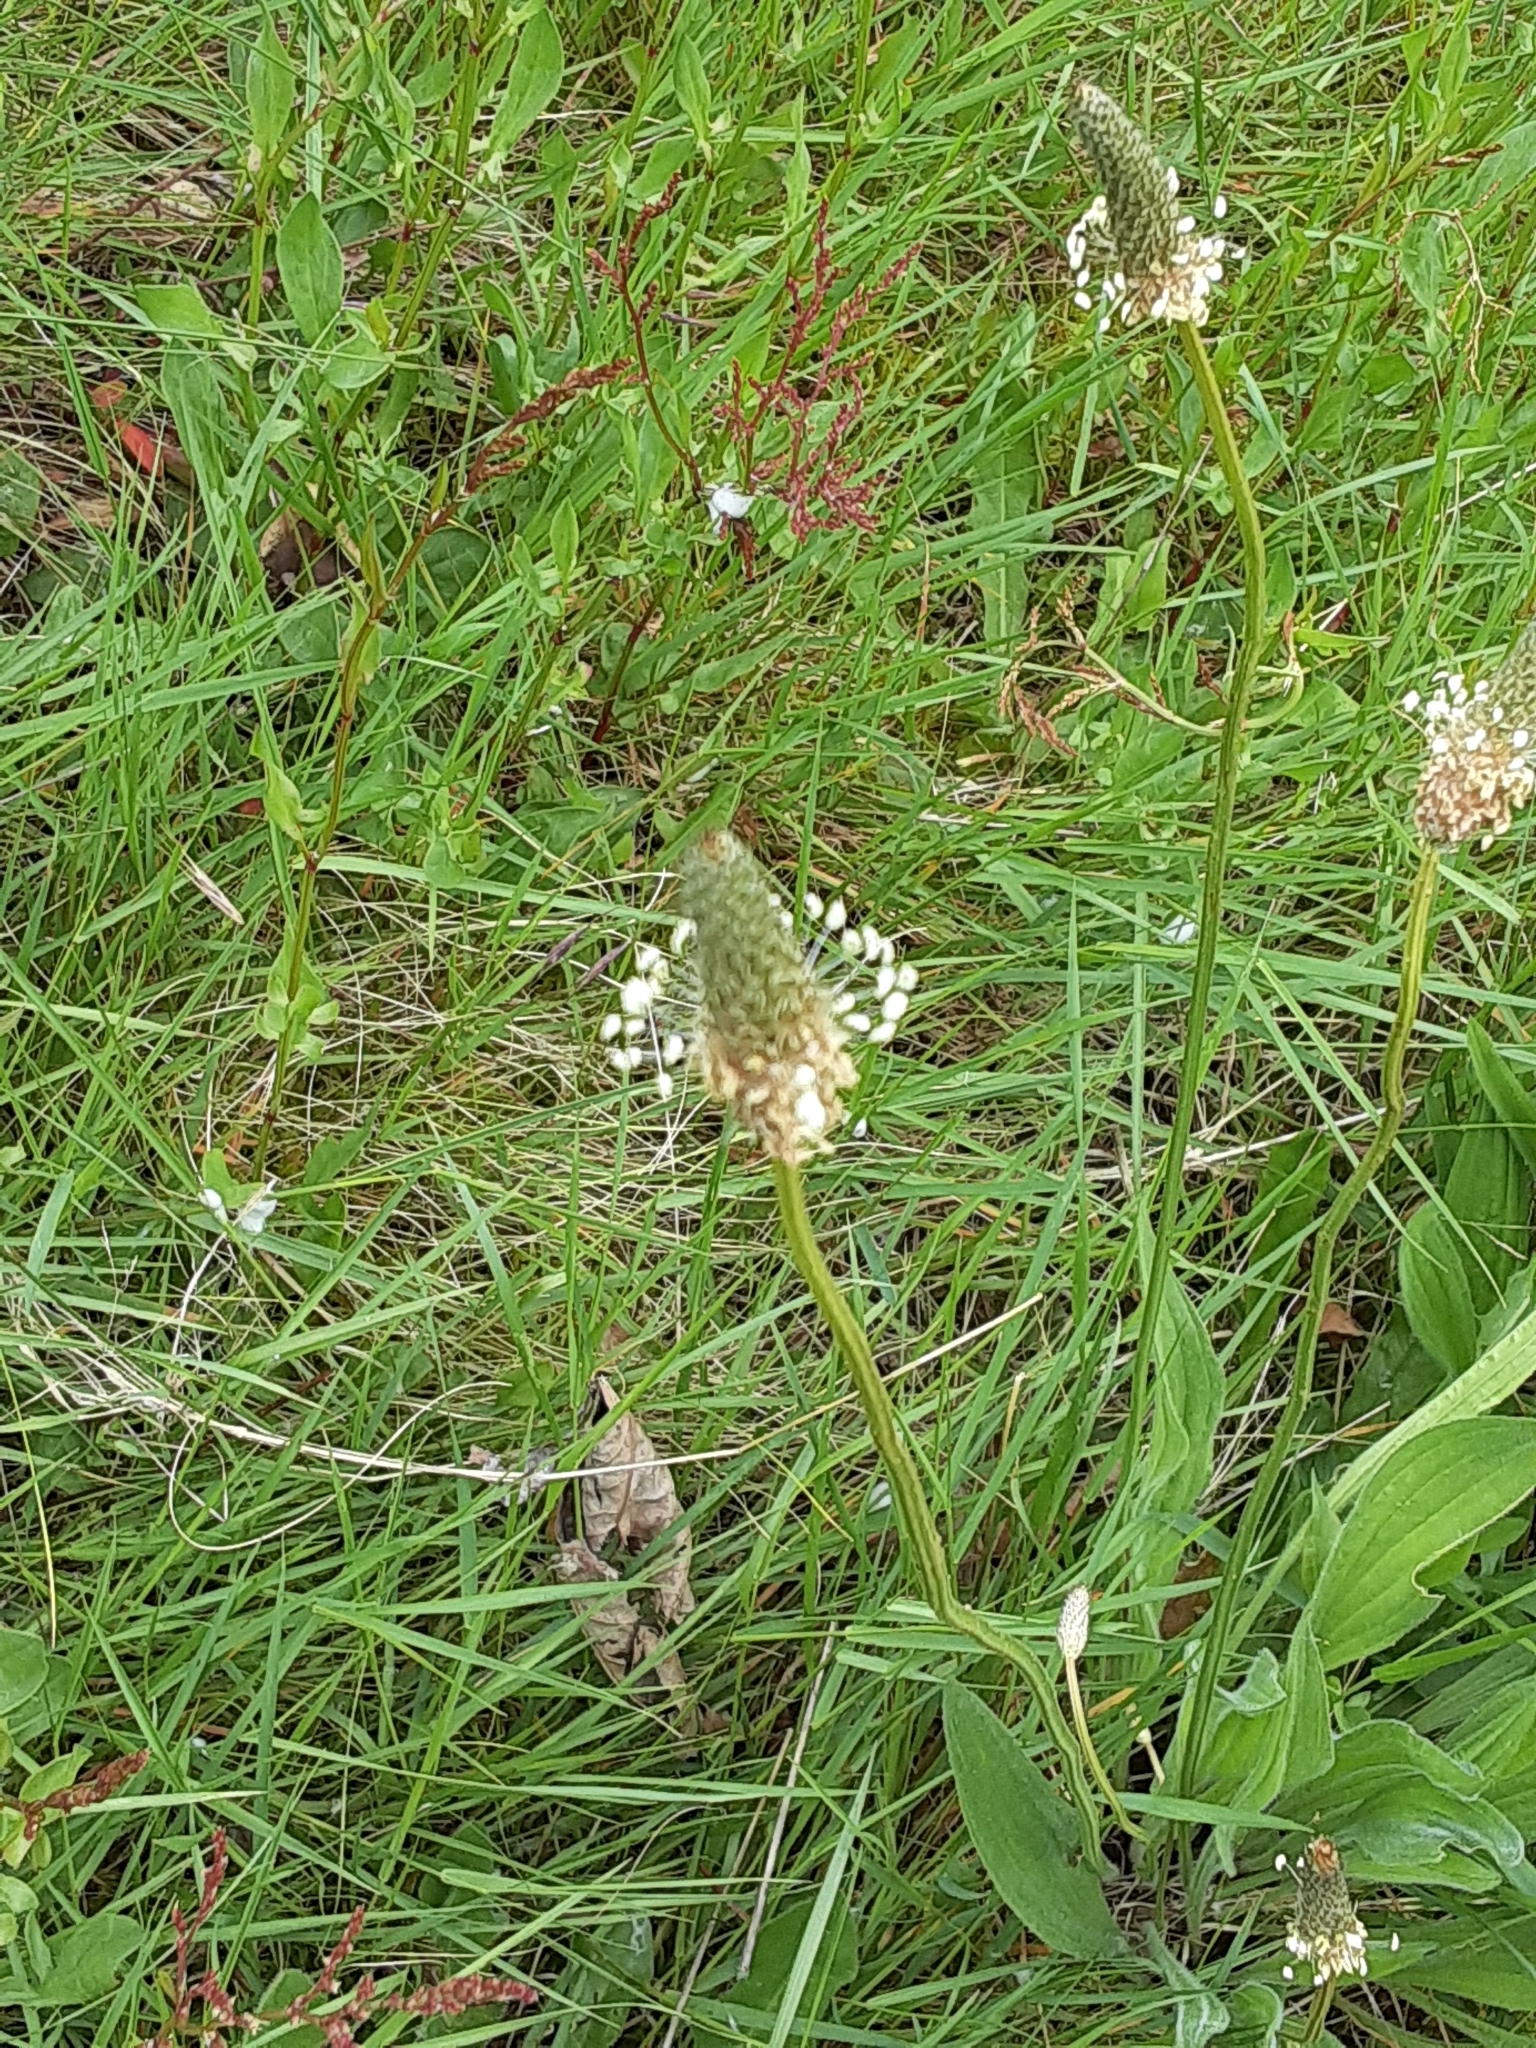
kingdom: Plantae
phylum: Tracheophyta
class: Magnoliopsida
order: Lamiales
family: Plantaginaceae
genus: Plantago
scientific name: Plantago lanceolata
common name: Ribwort plantain
